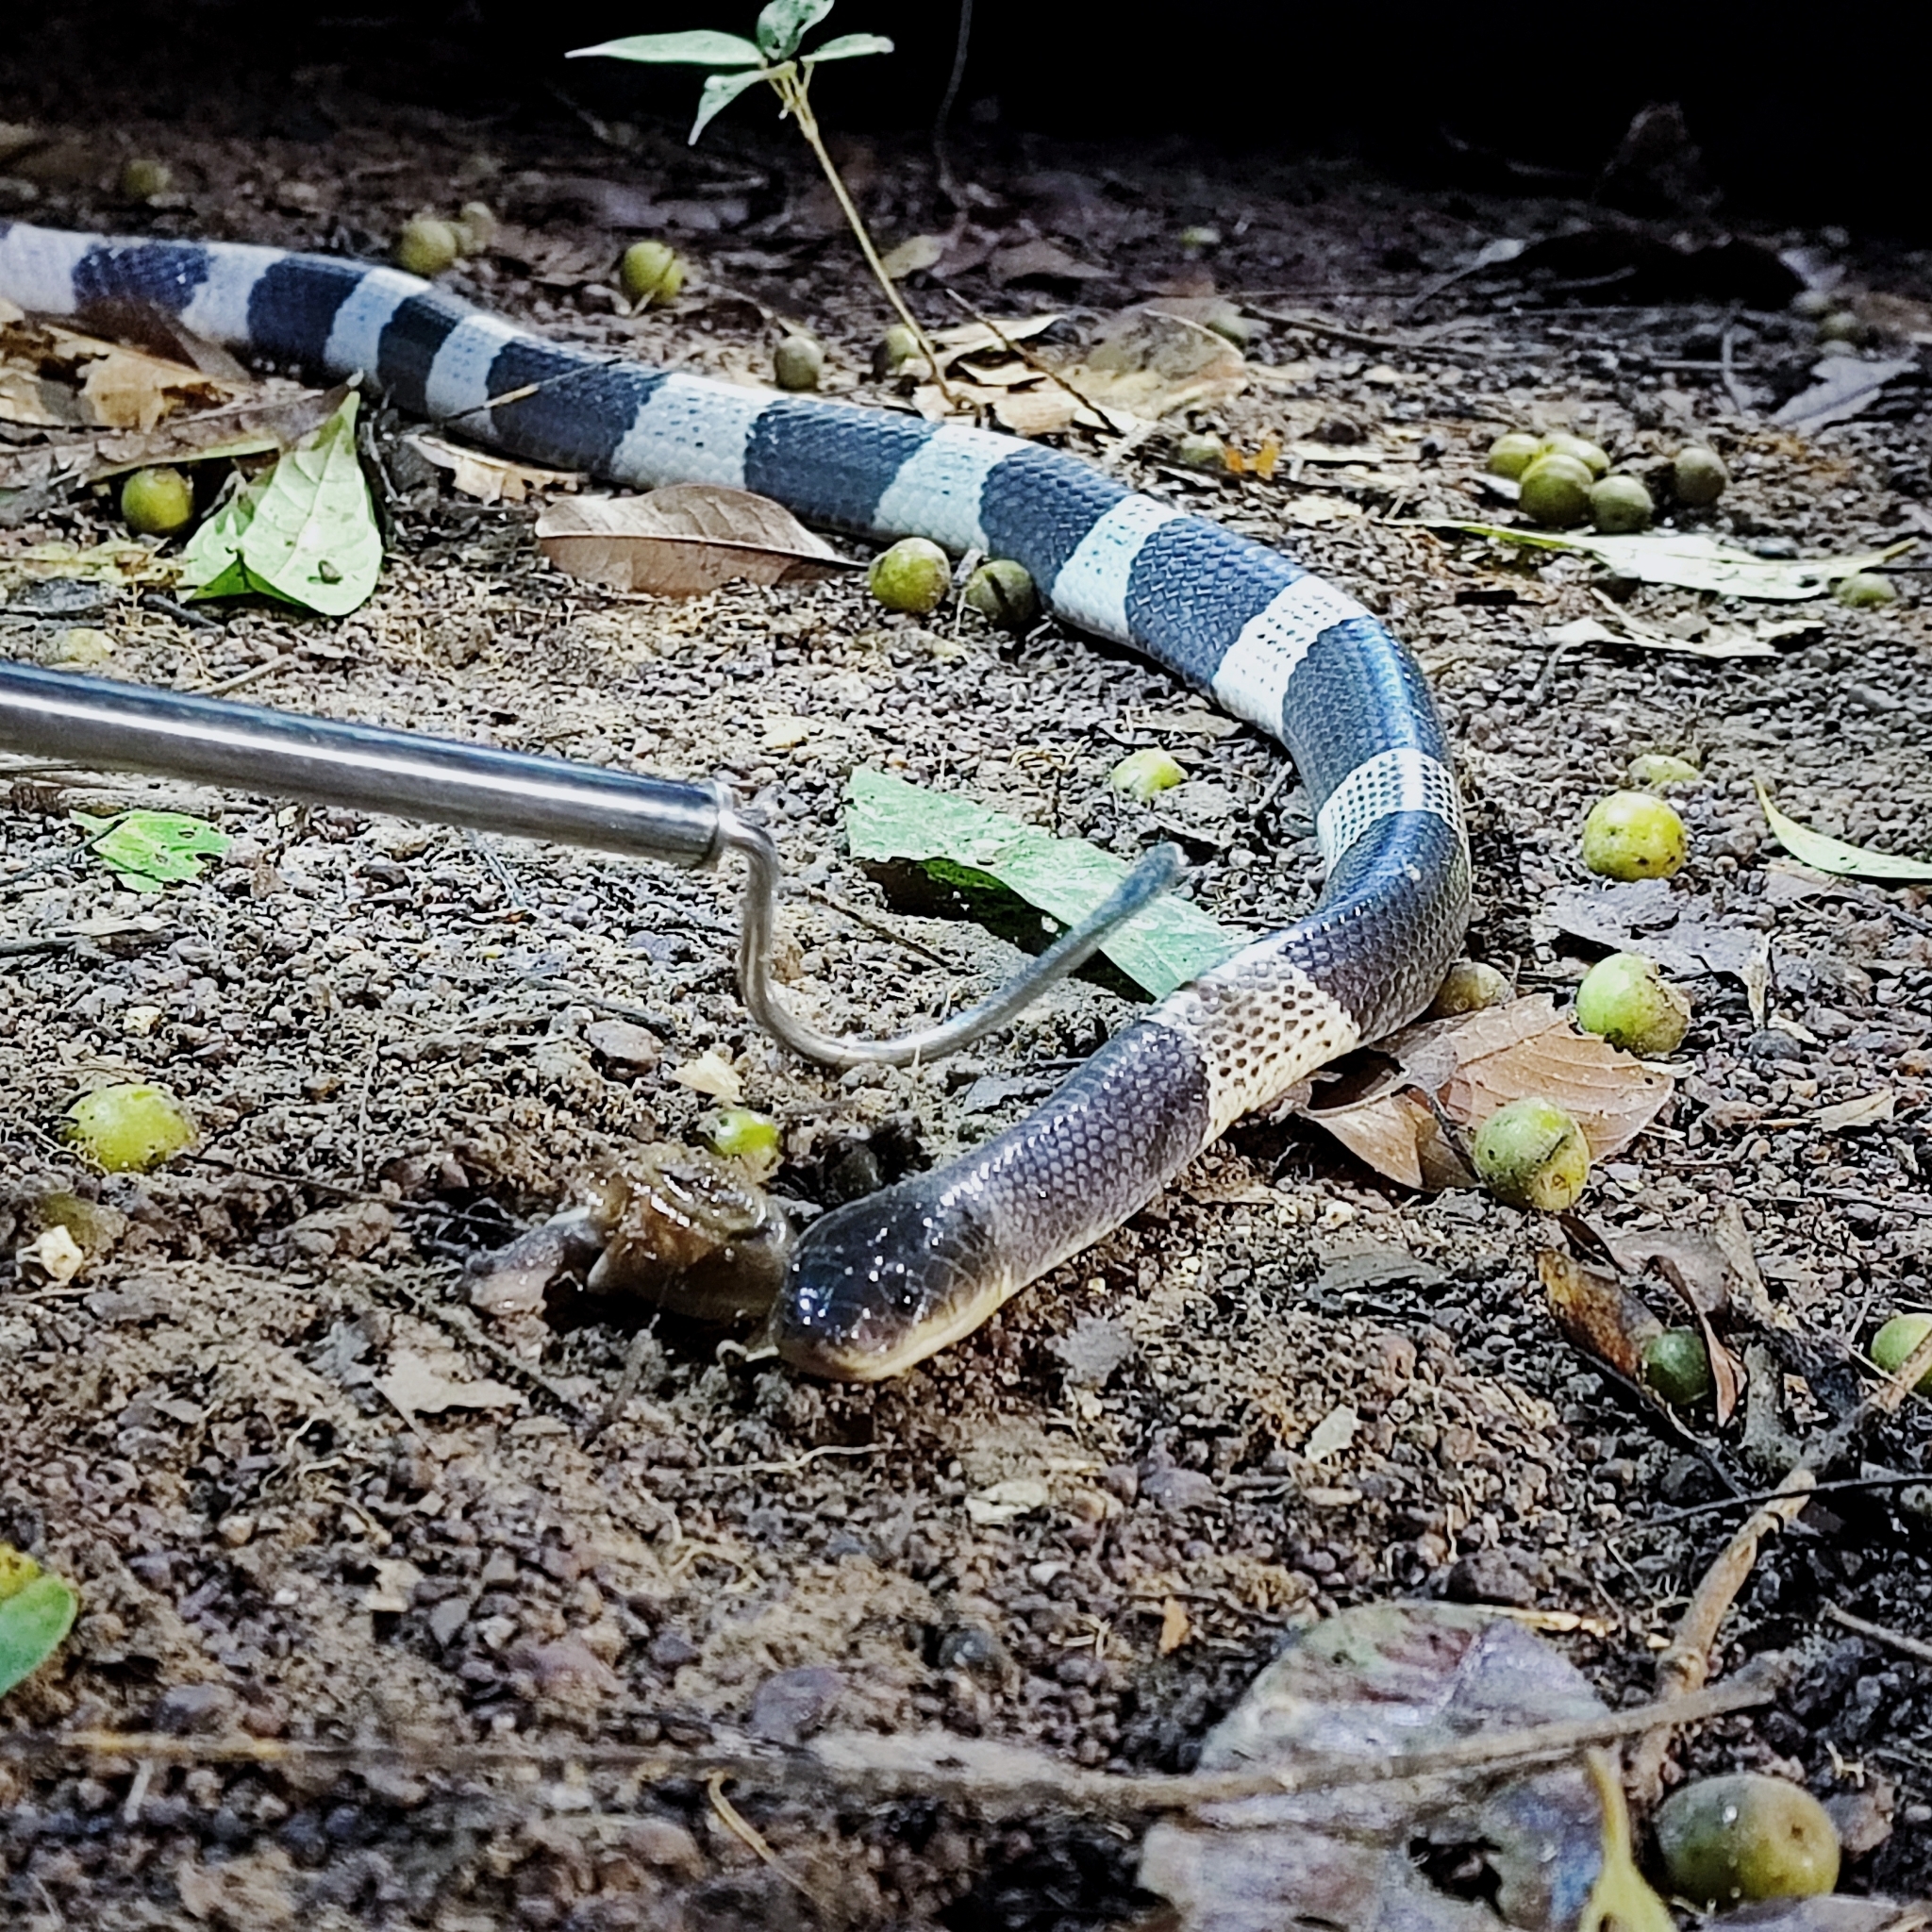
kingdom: Animalia
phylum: Chordata
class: Squamata
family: Elapidae
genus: Bungarus
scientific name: Bungarus candidus
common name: Blue krait/malayan krait
